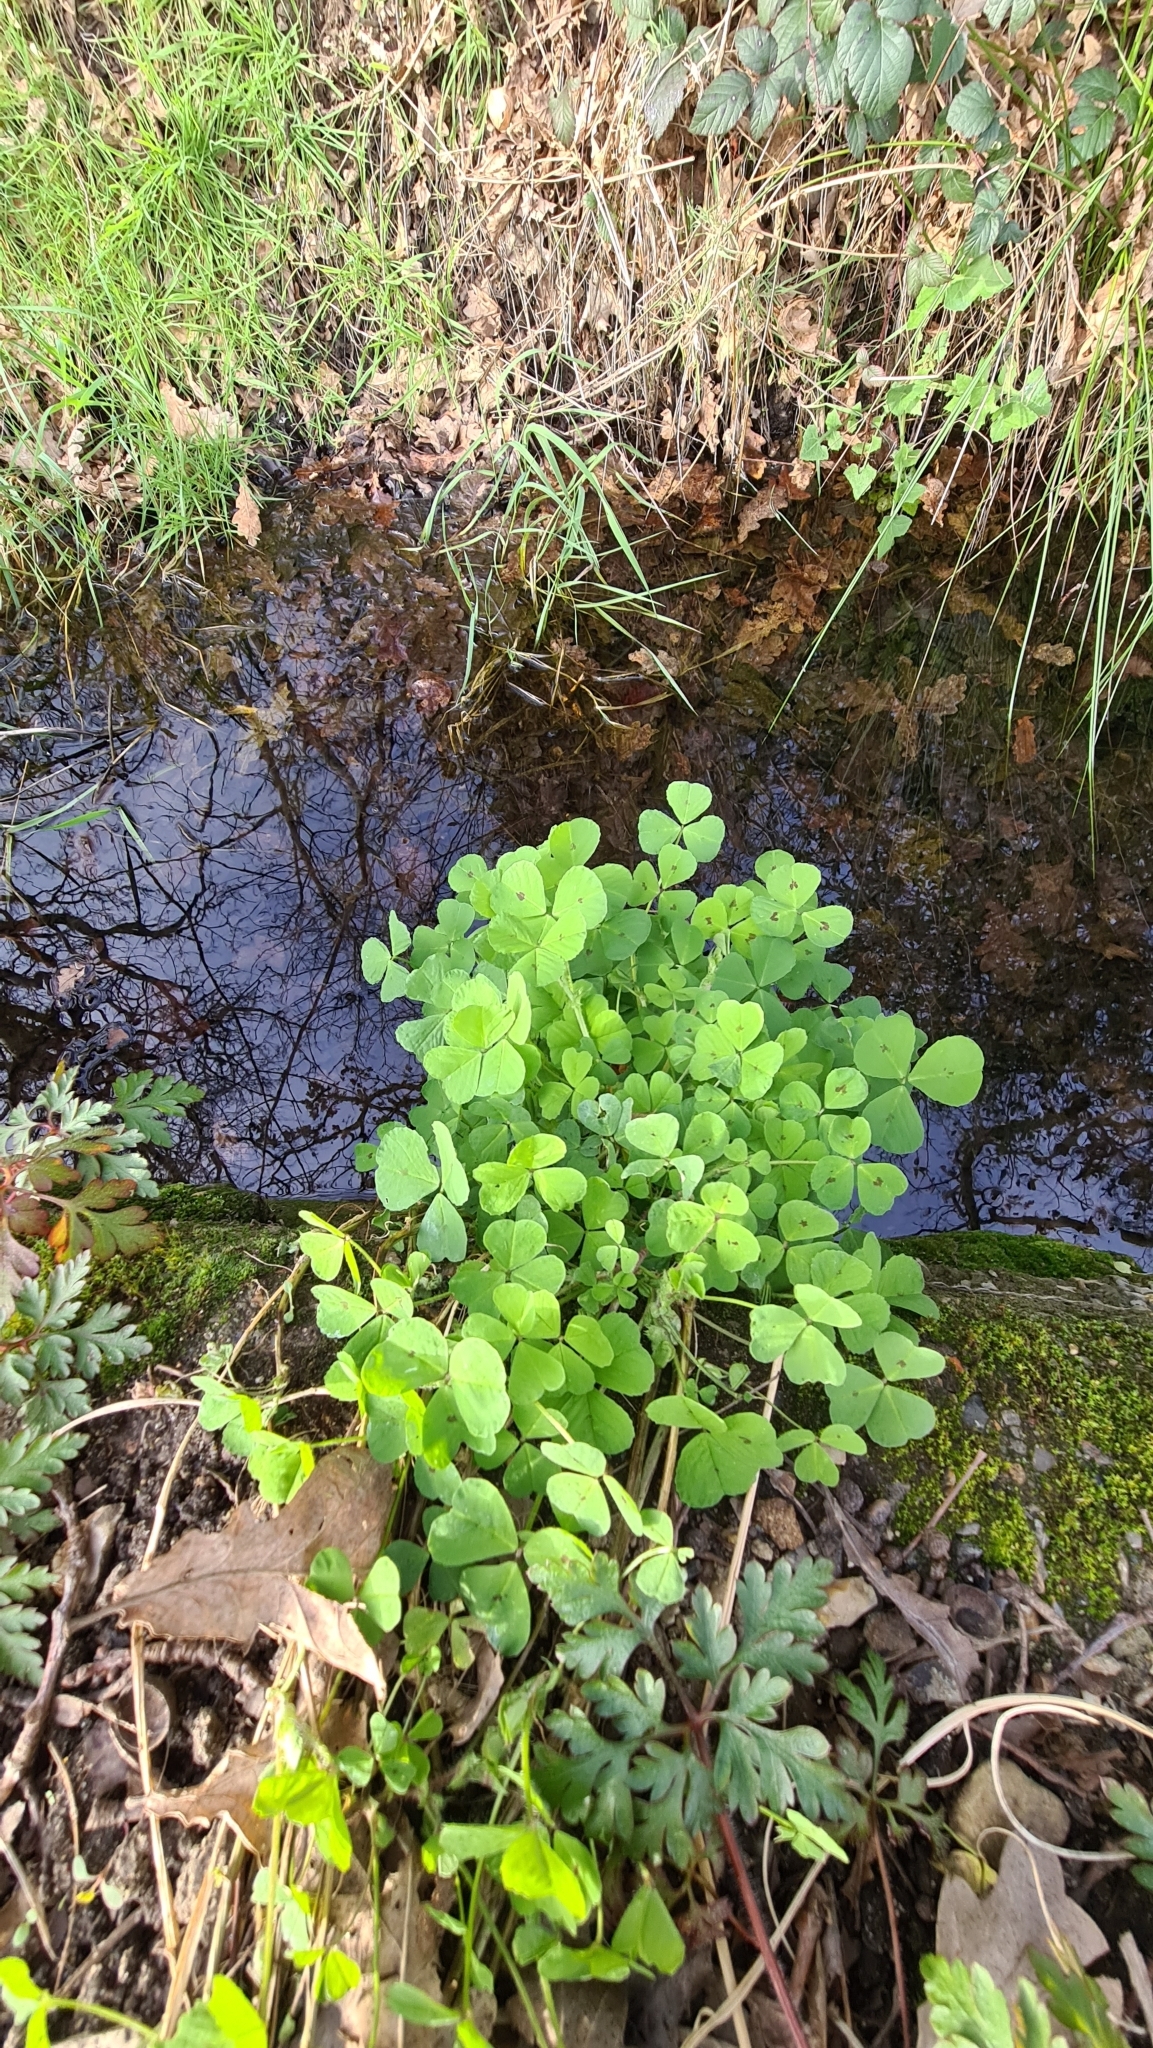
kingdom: Plantae
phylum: Tracheophyta
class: Magnoliopsida
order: Fabales
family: Fabaceae
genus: Medicago
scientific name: Medicago arabica
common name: Spotted medick
